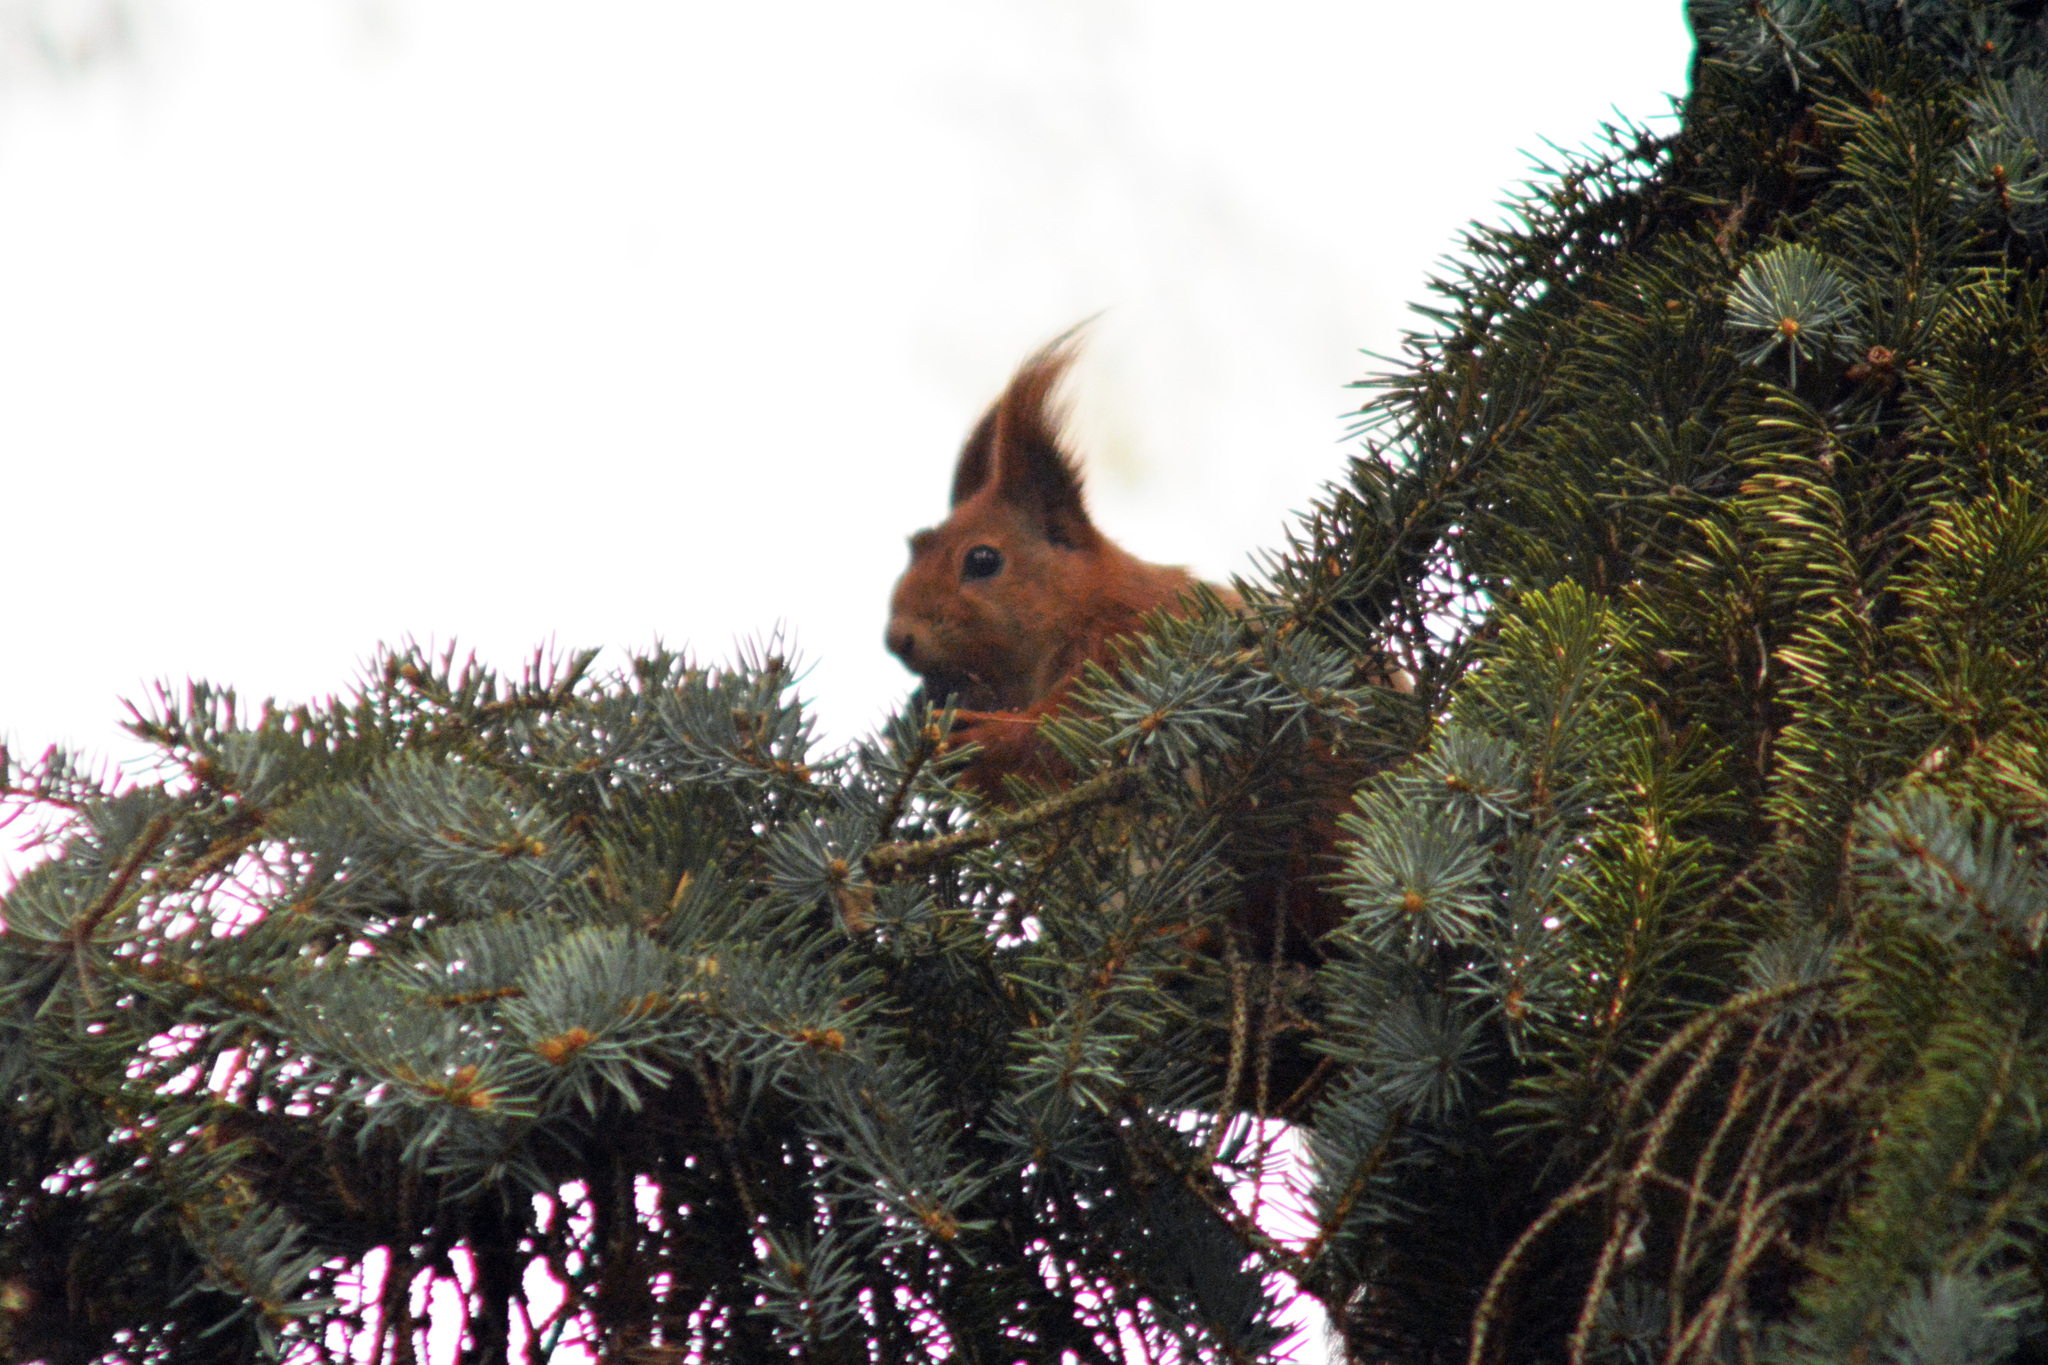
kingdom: Animalia
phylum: Chordata
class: Mammalia
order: Rodentia
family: Sciuridae
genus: Sciurus
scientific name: Sciurus vulgaris
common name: Eurasian red squirrel
